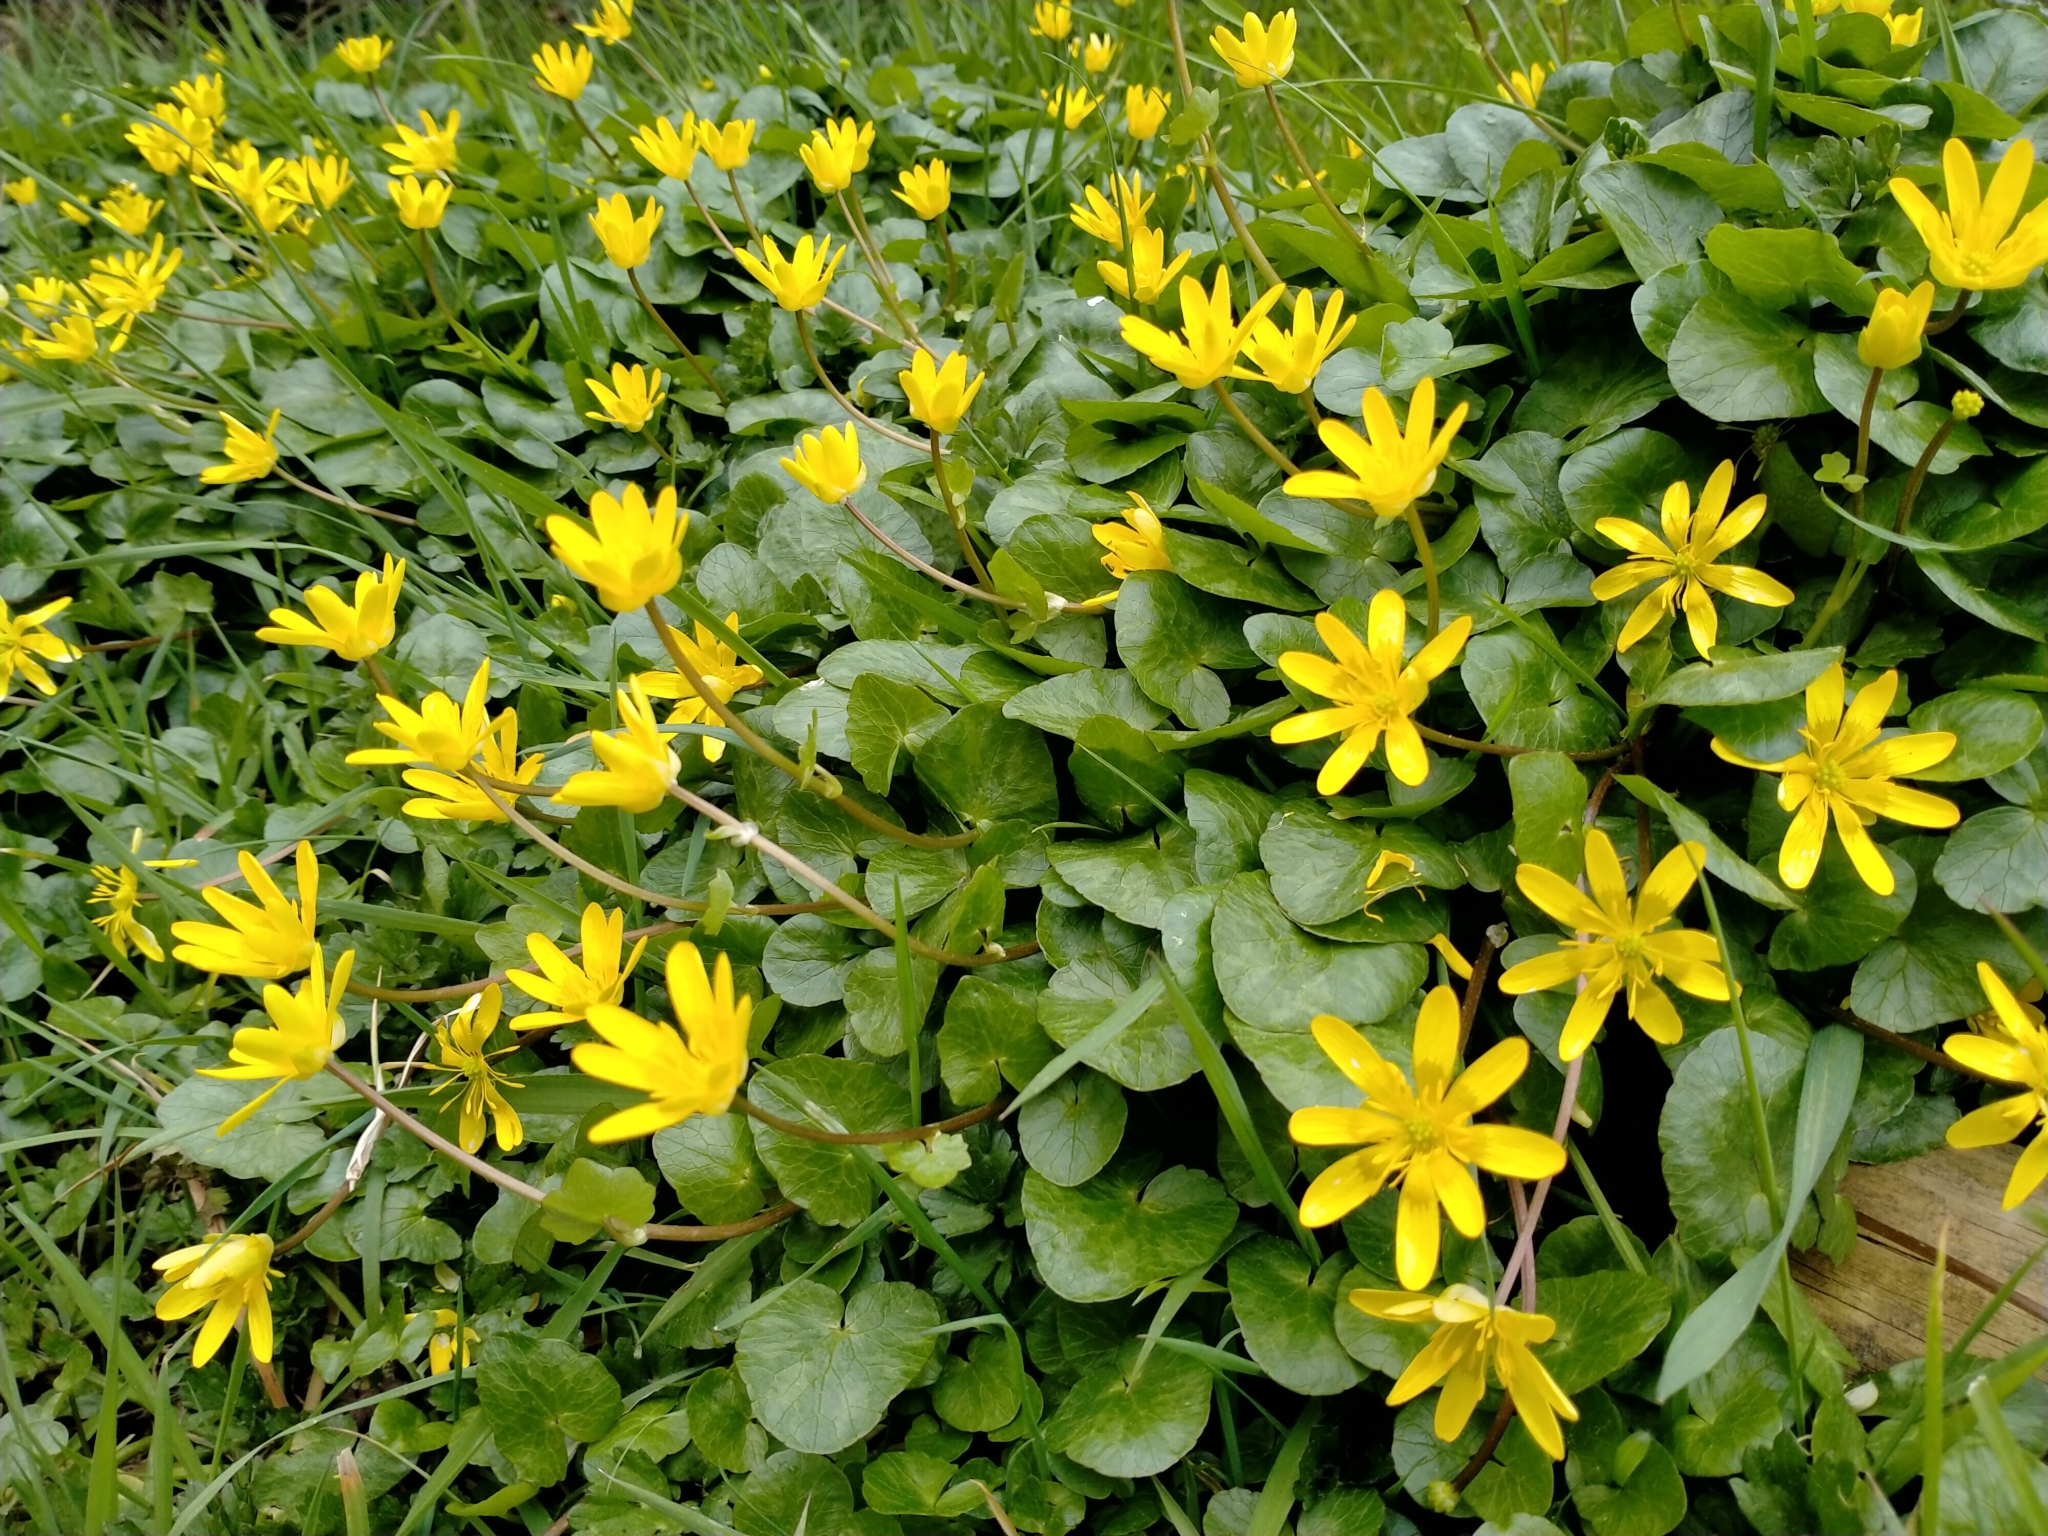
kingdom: Plantae
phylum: Tracheophyta
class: Magnoliopsida
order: Ranunculales
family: Ranunculaceae
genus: Ficaria
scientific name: Ficaria verna
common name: Lesser celandine
